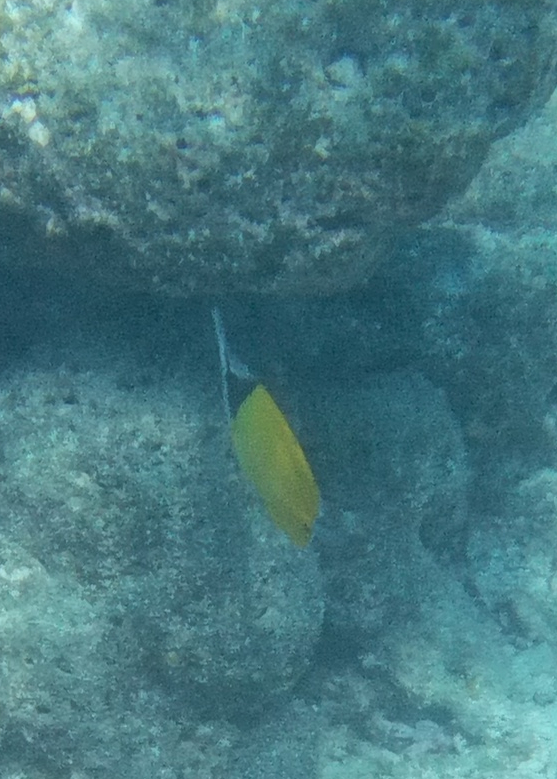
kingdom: Animalia
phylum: Chordata
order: Perciformes
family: Chaetodontidae
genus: Forcipiger
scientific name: Forcipiger flavissimus
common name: Forcepsfish
